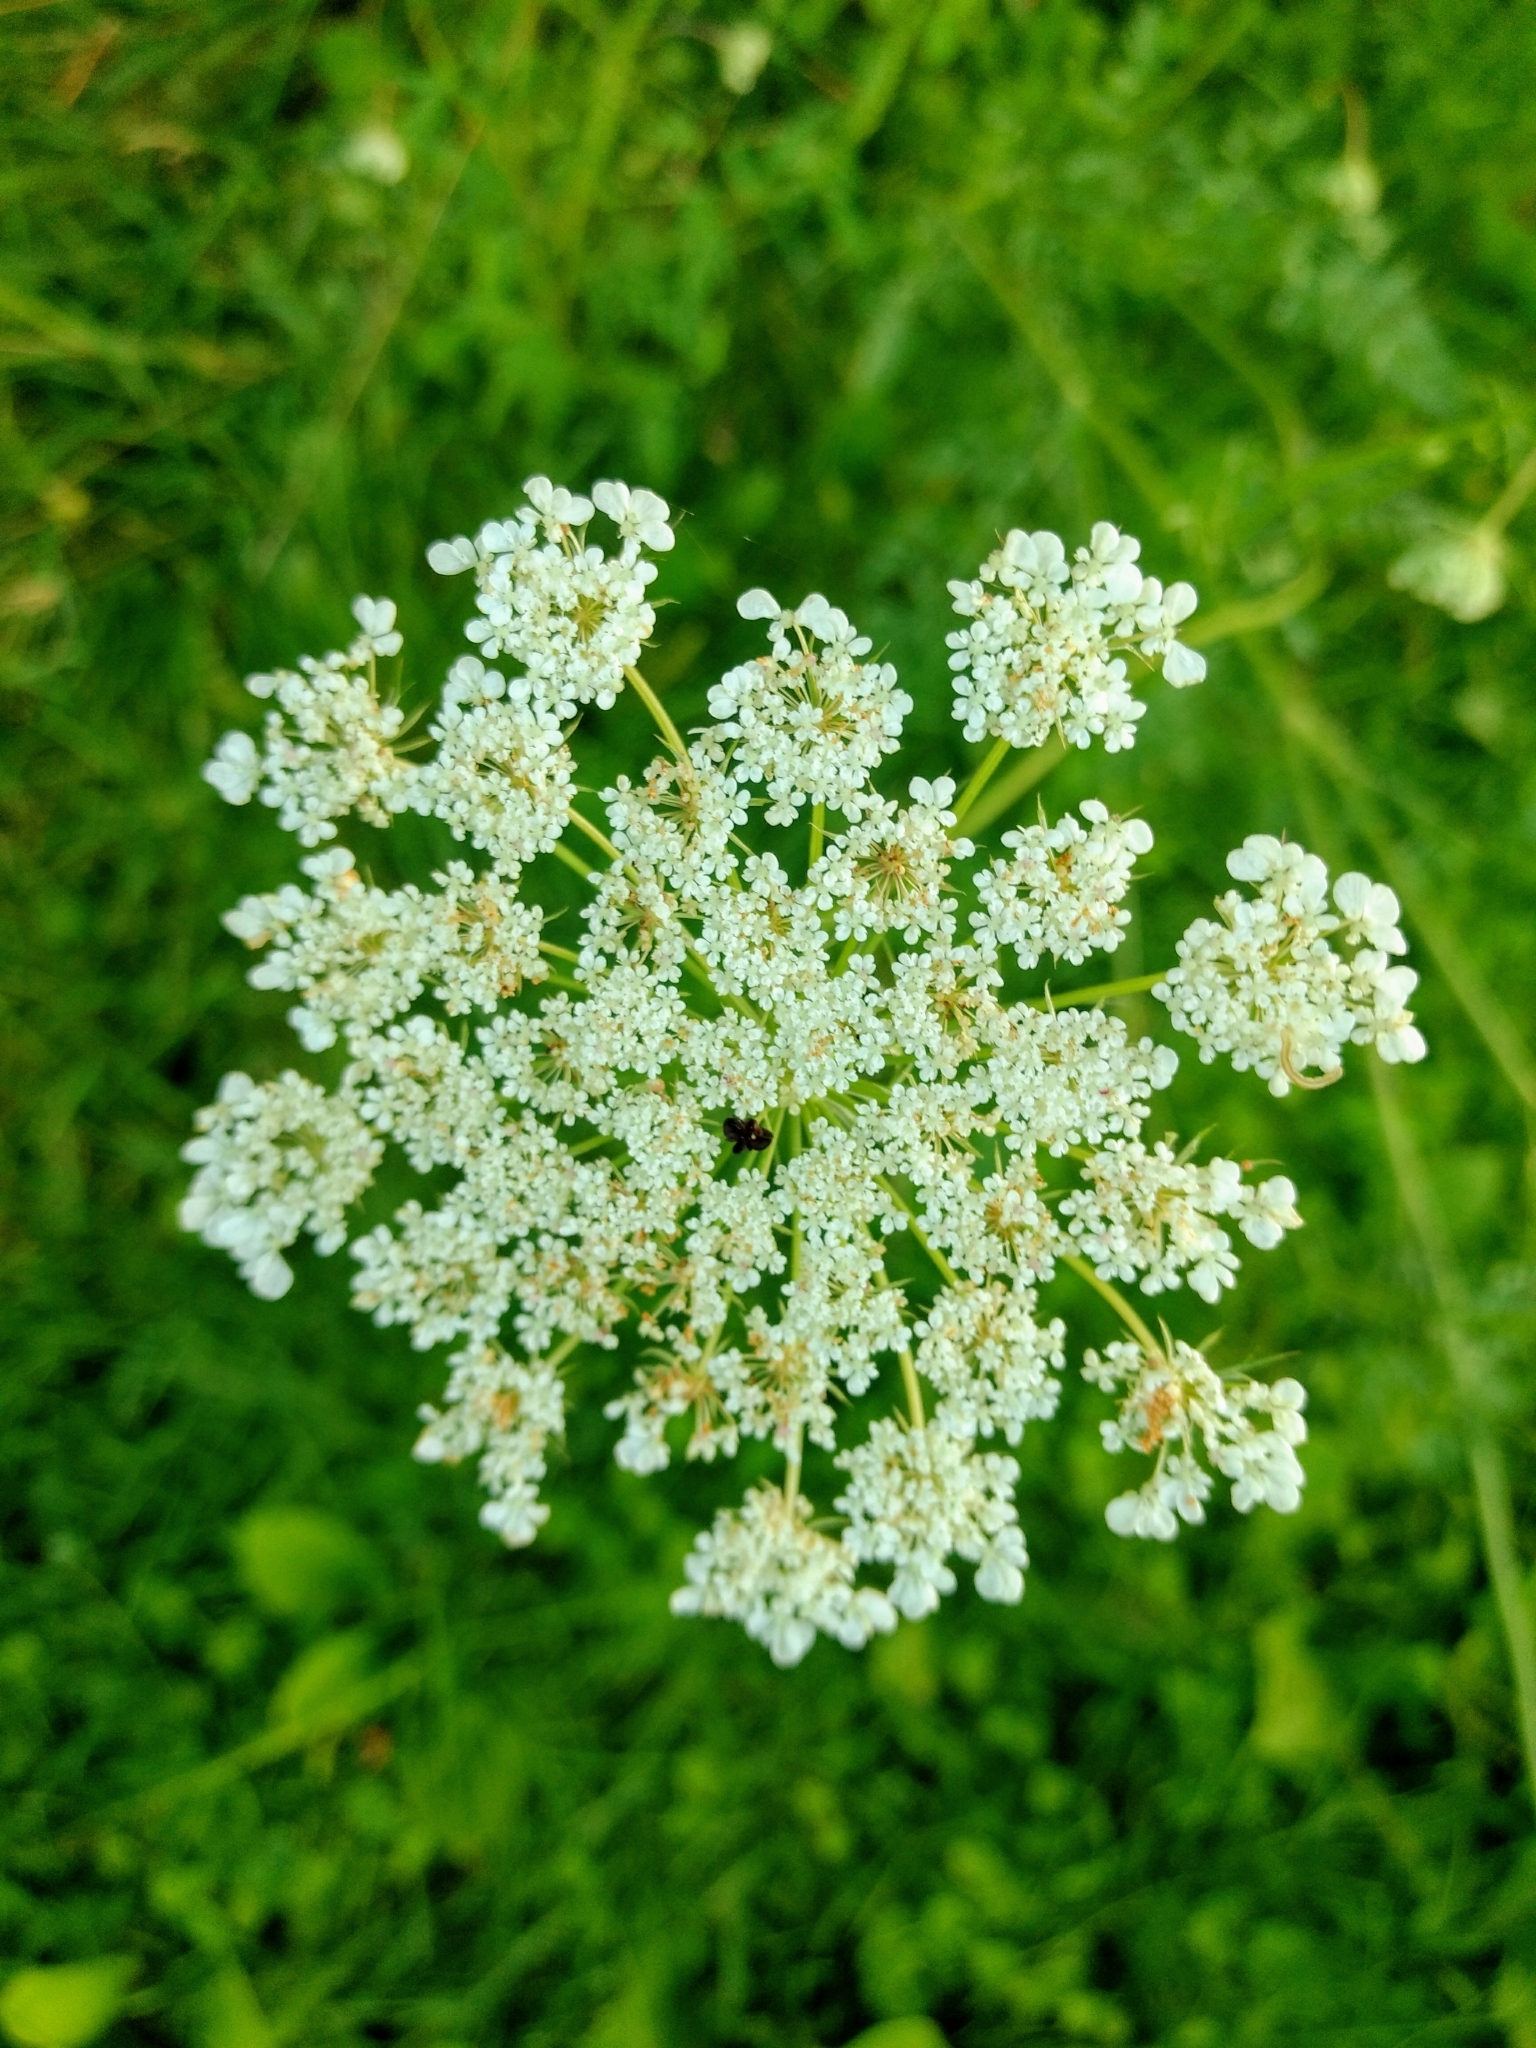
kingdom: Plantae
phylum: Tracheophyta
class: Magnoliopsida
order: Apiales
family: Apiaceae
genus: Daucus
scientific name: Daucus carota
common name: Wild carrot
